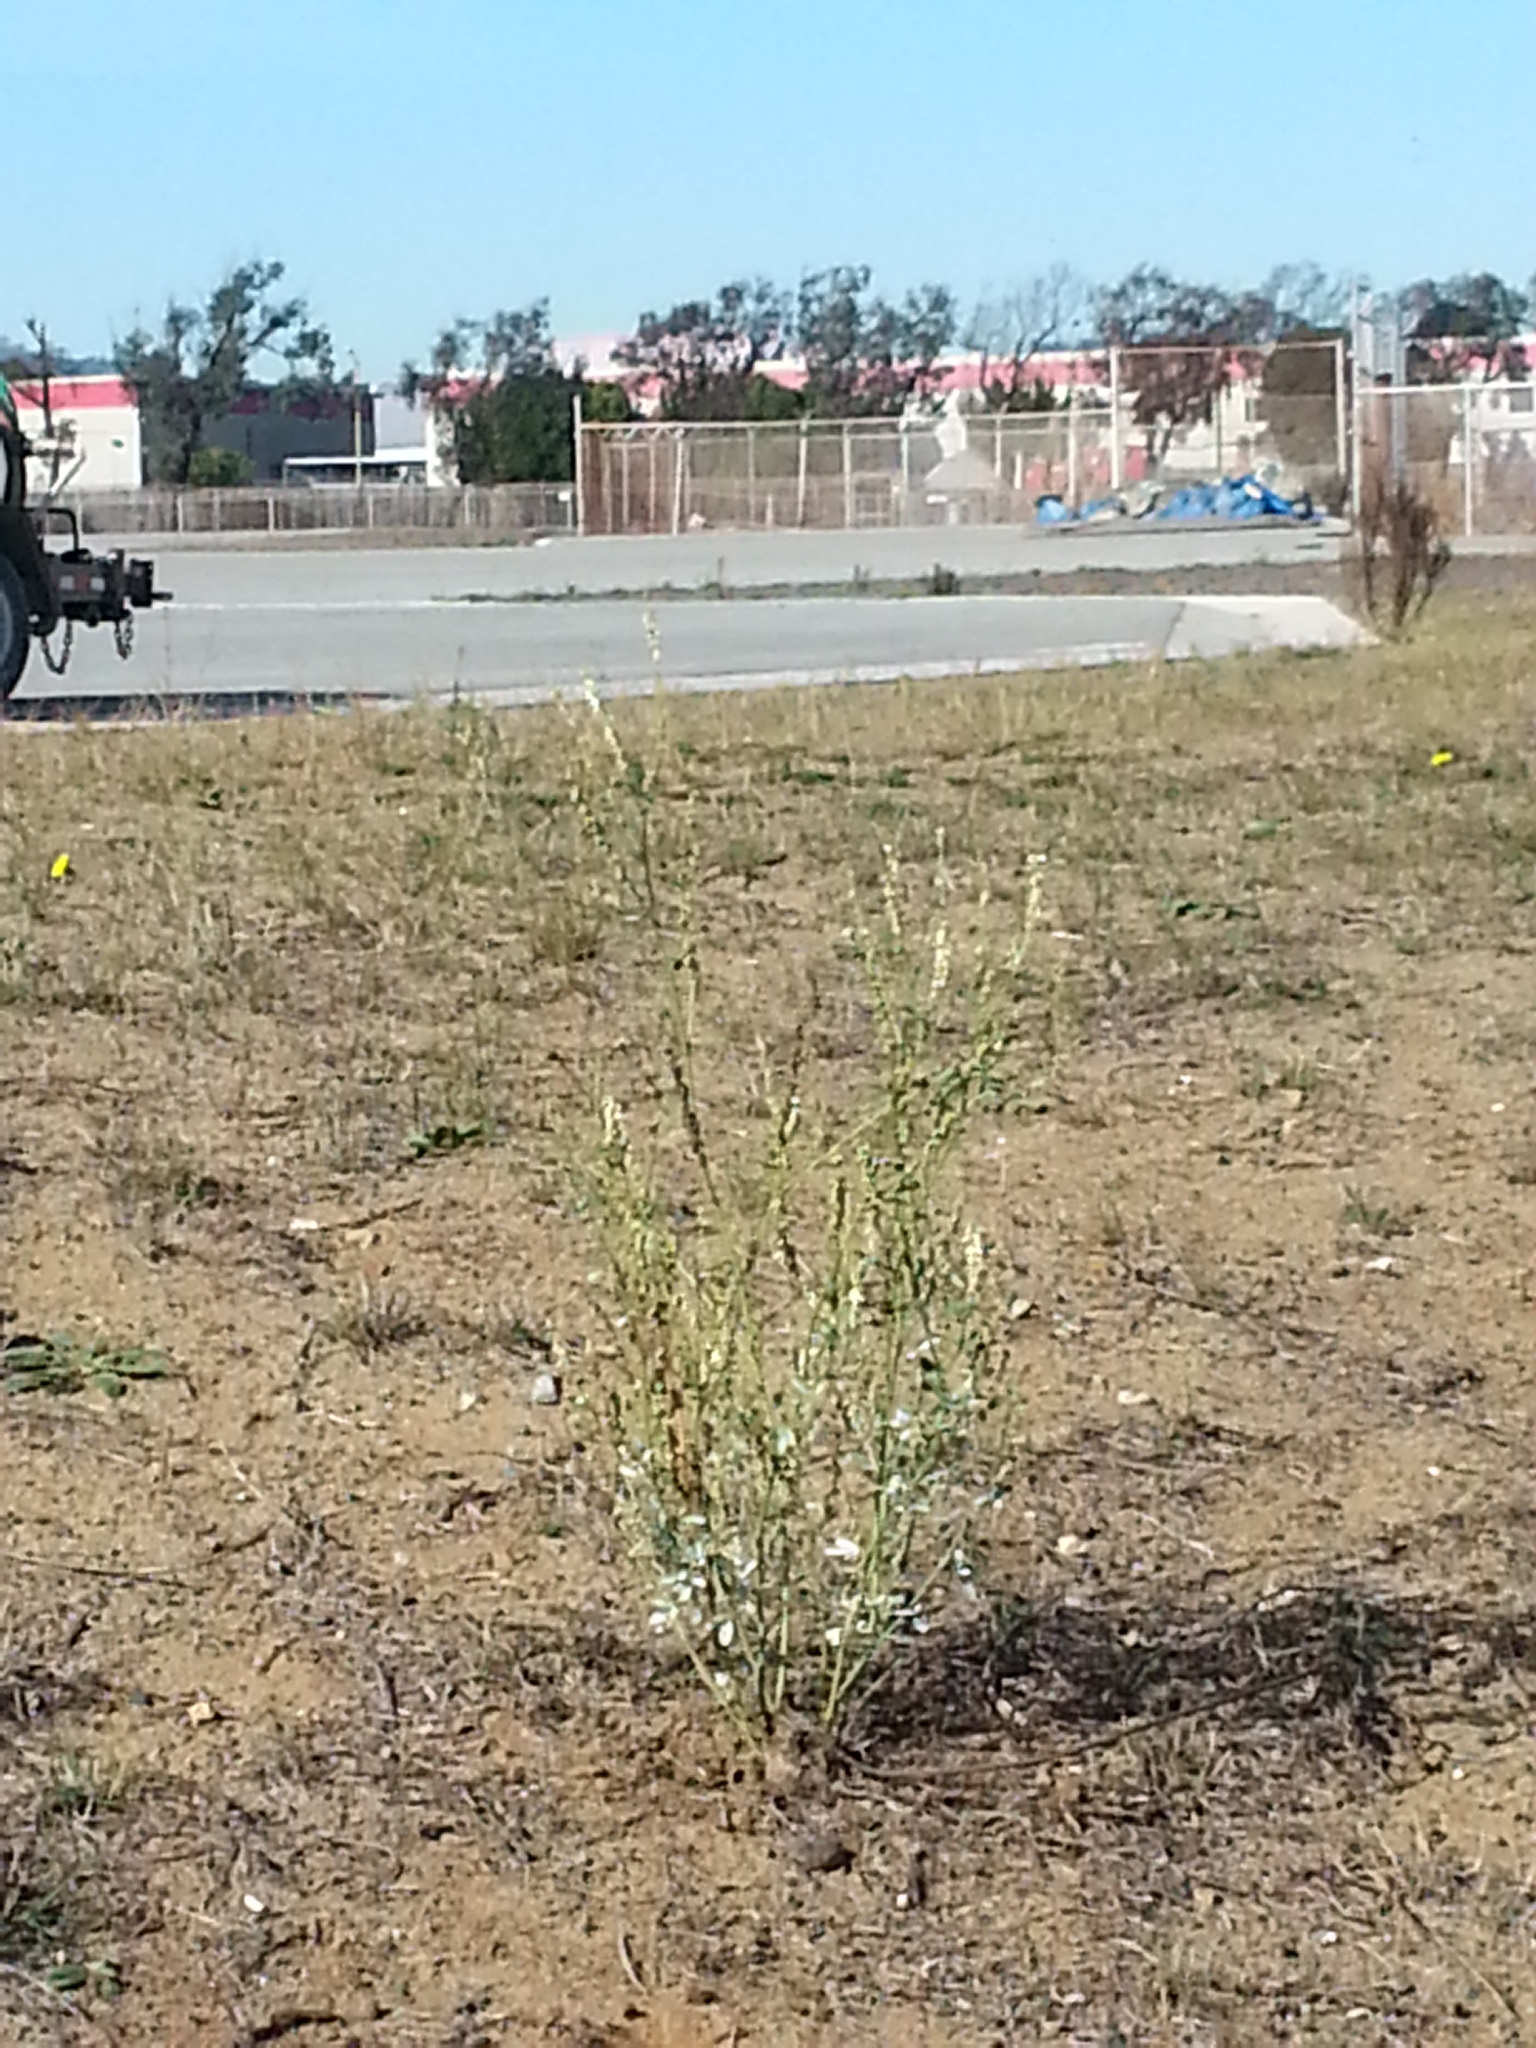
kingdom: Plantae
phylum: Tracheophyta
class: Magnoliopsida
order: Fabales
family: Fabaceae
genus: Melilotus
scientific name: Melilotus albus
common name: White melilot
